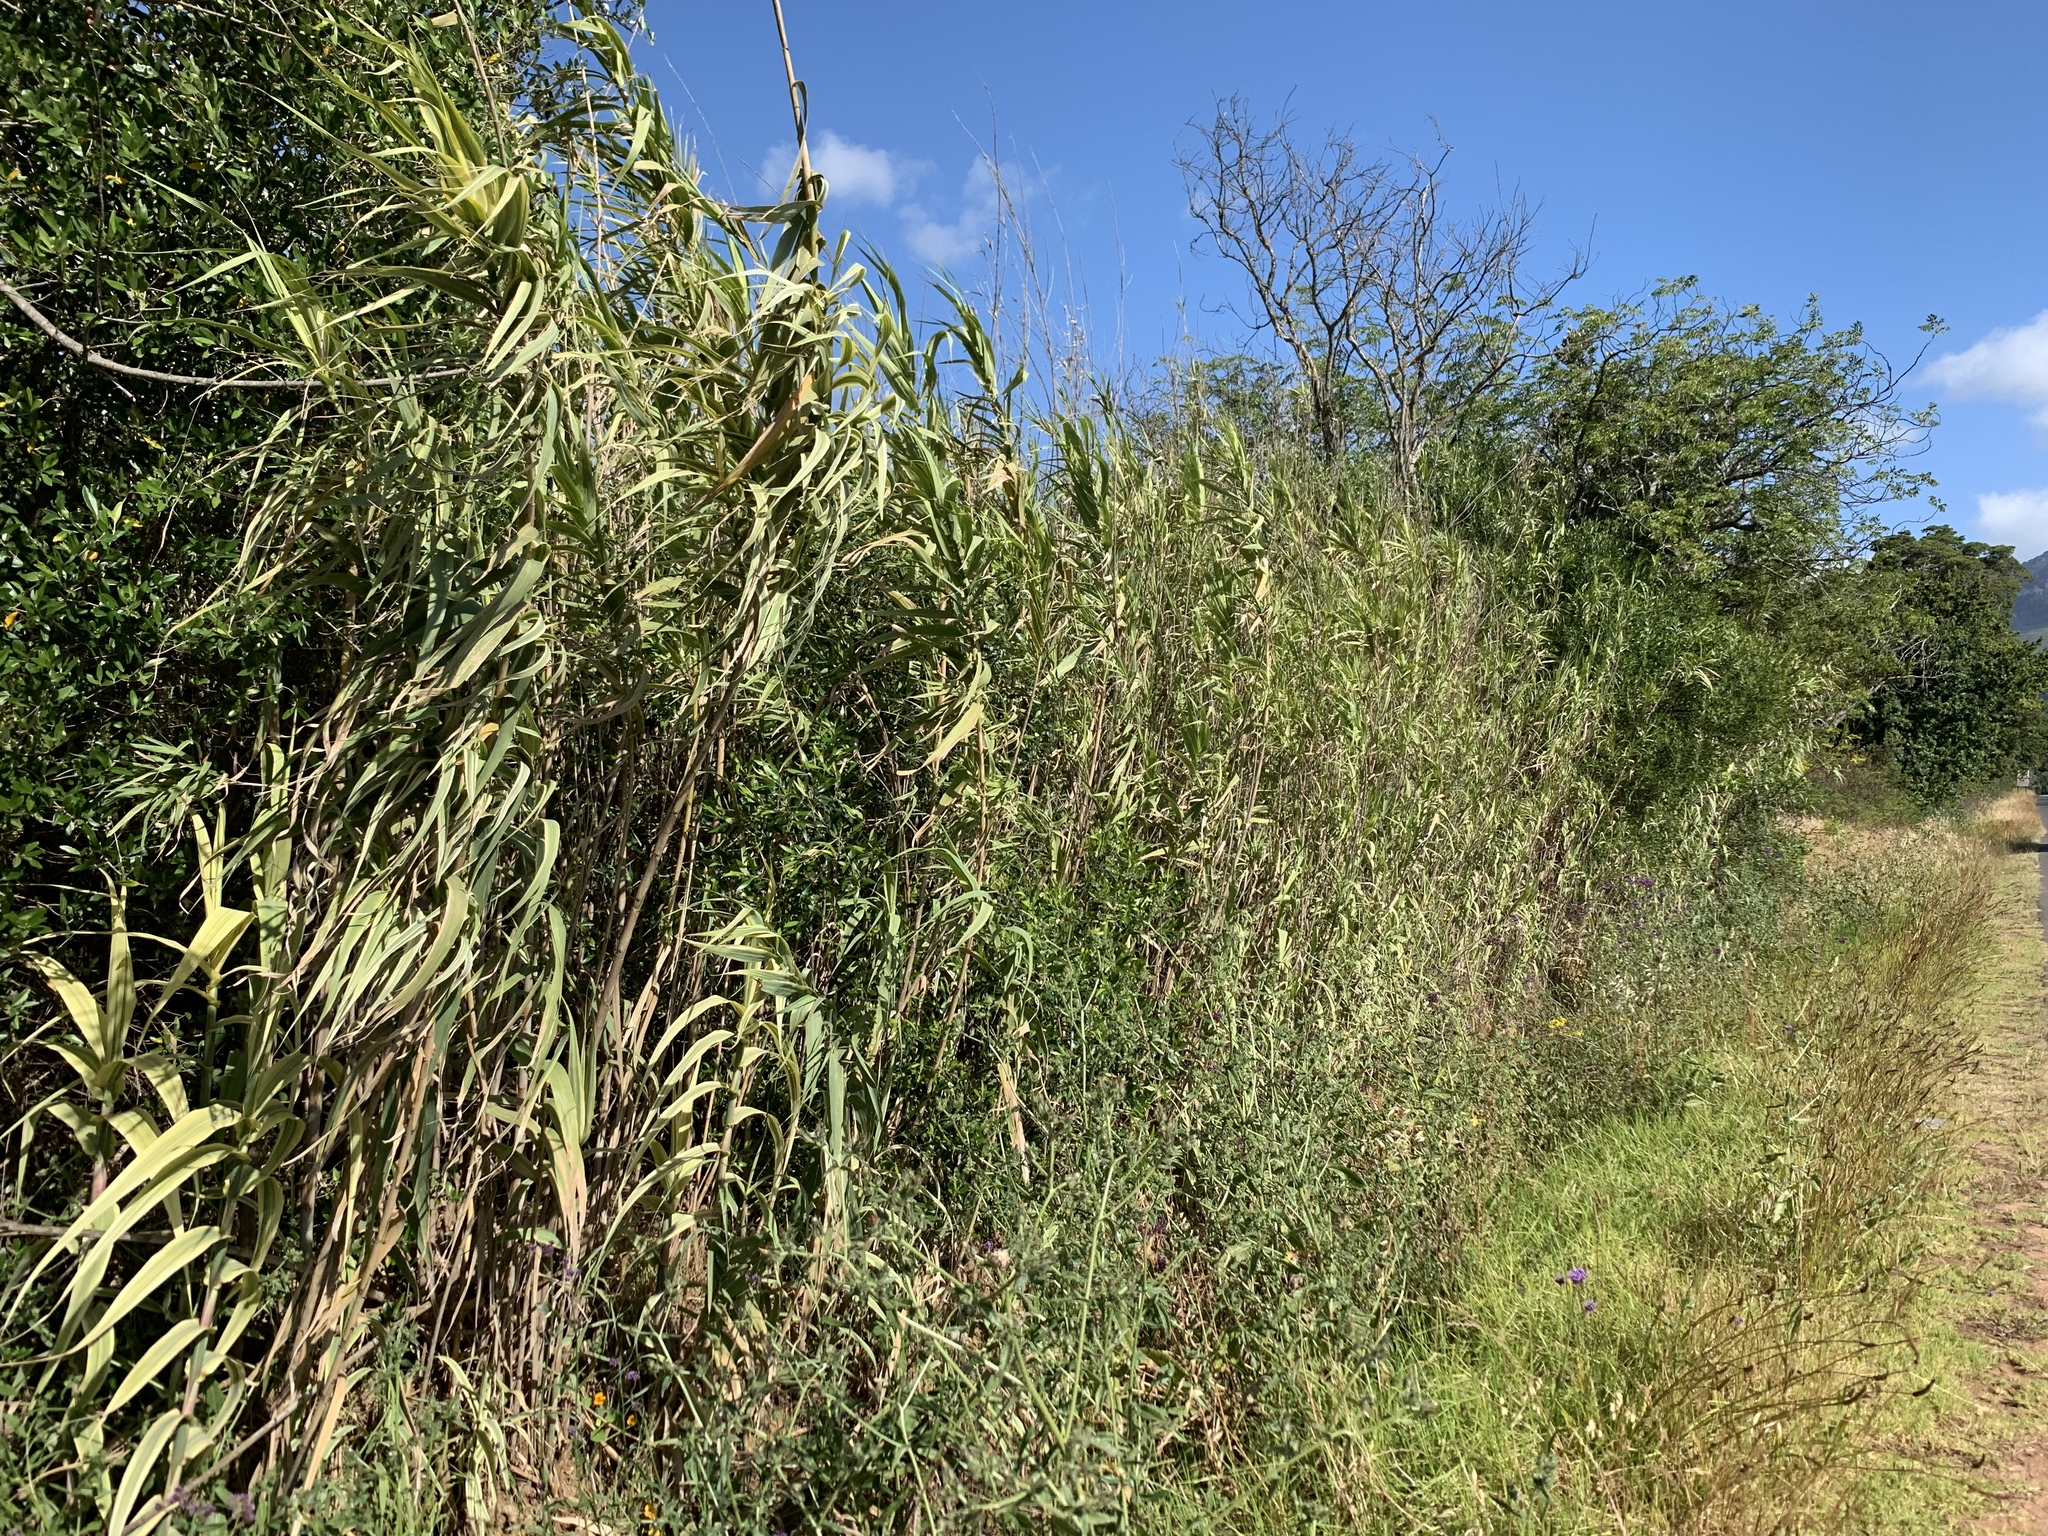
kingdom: Plantae
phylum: Tracheophyta
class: Liliopsida
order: Poales
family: Poaceae
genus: Arundo
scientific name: Arundo donax
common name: Giant reed
